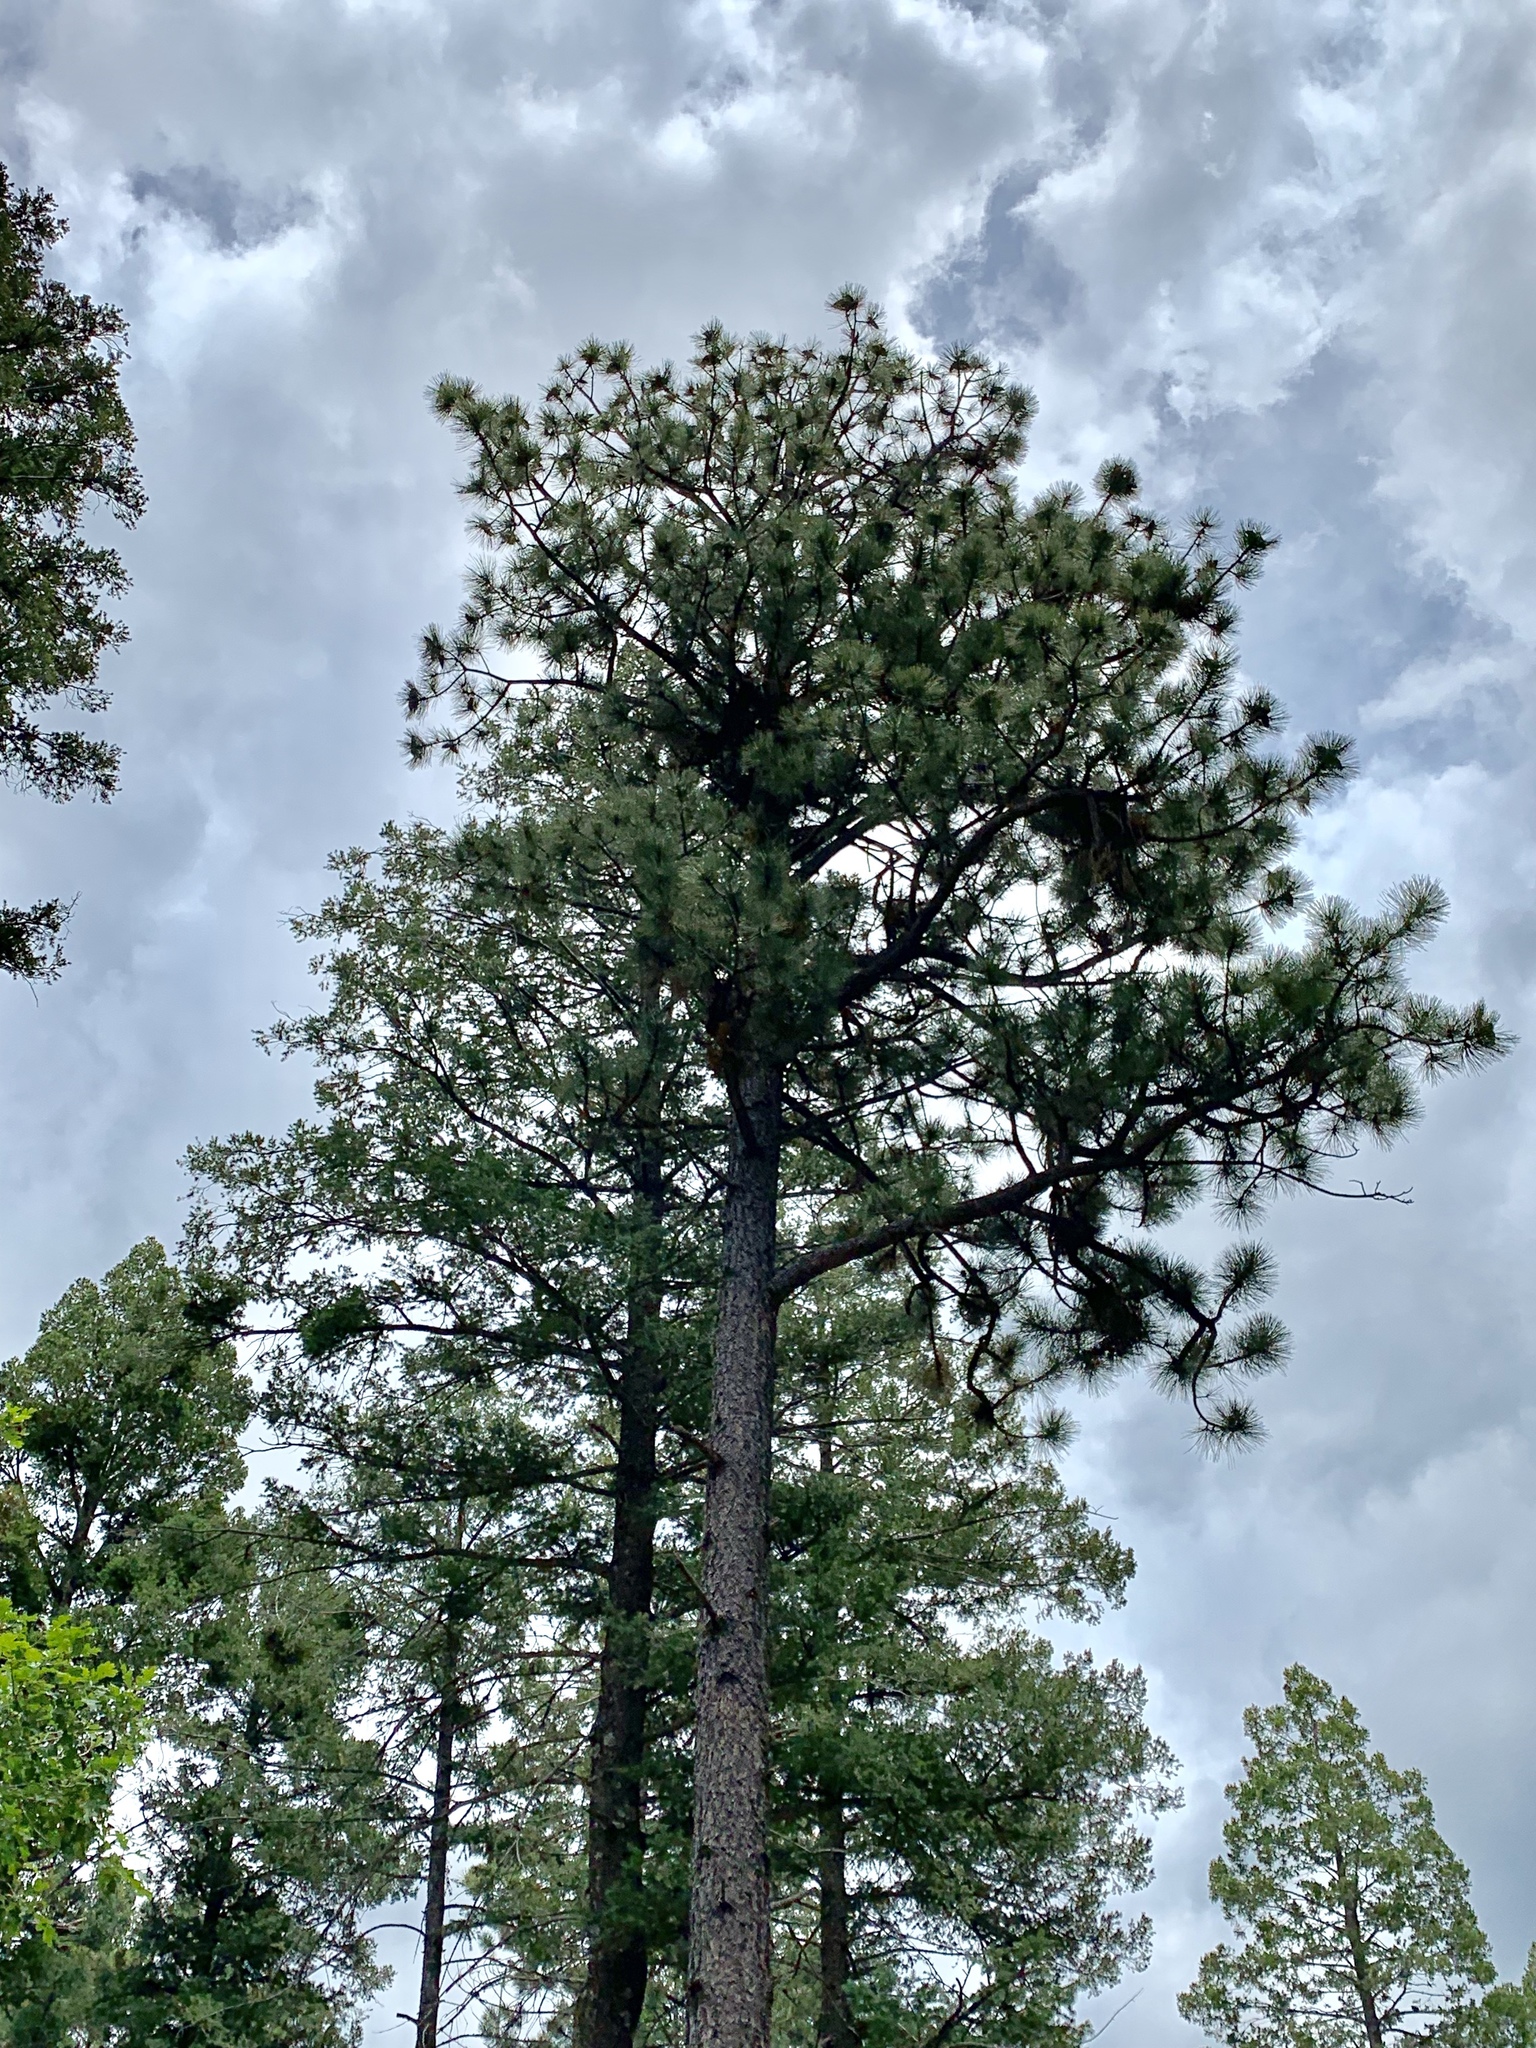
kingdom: Plantae
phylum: Tracheophyta
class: Pinopsida
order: Pinales
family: Pinaceae
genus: Pinus
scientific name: Pinus ponderosa
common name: Western yellow-pine
